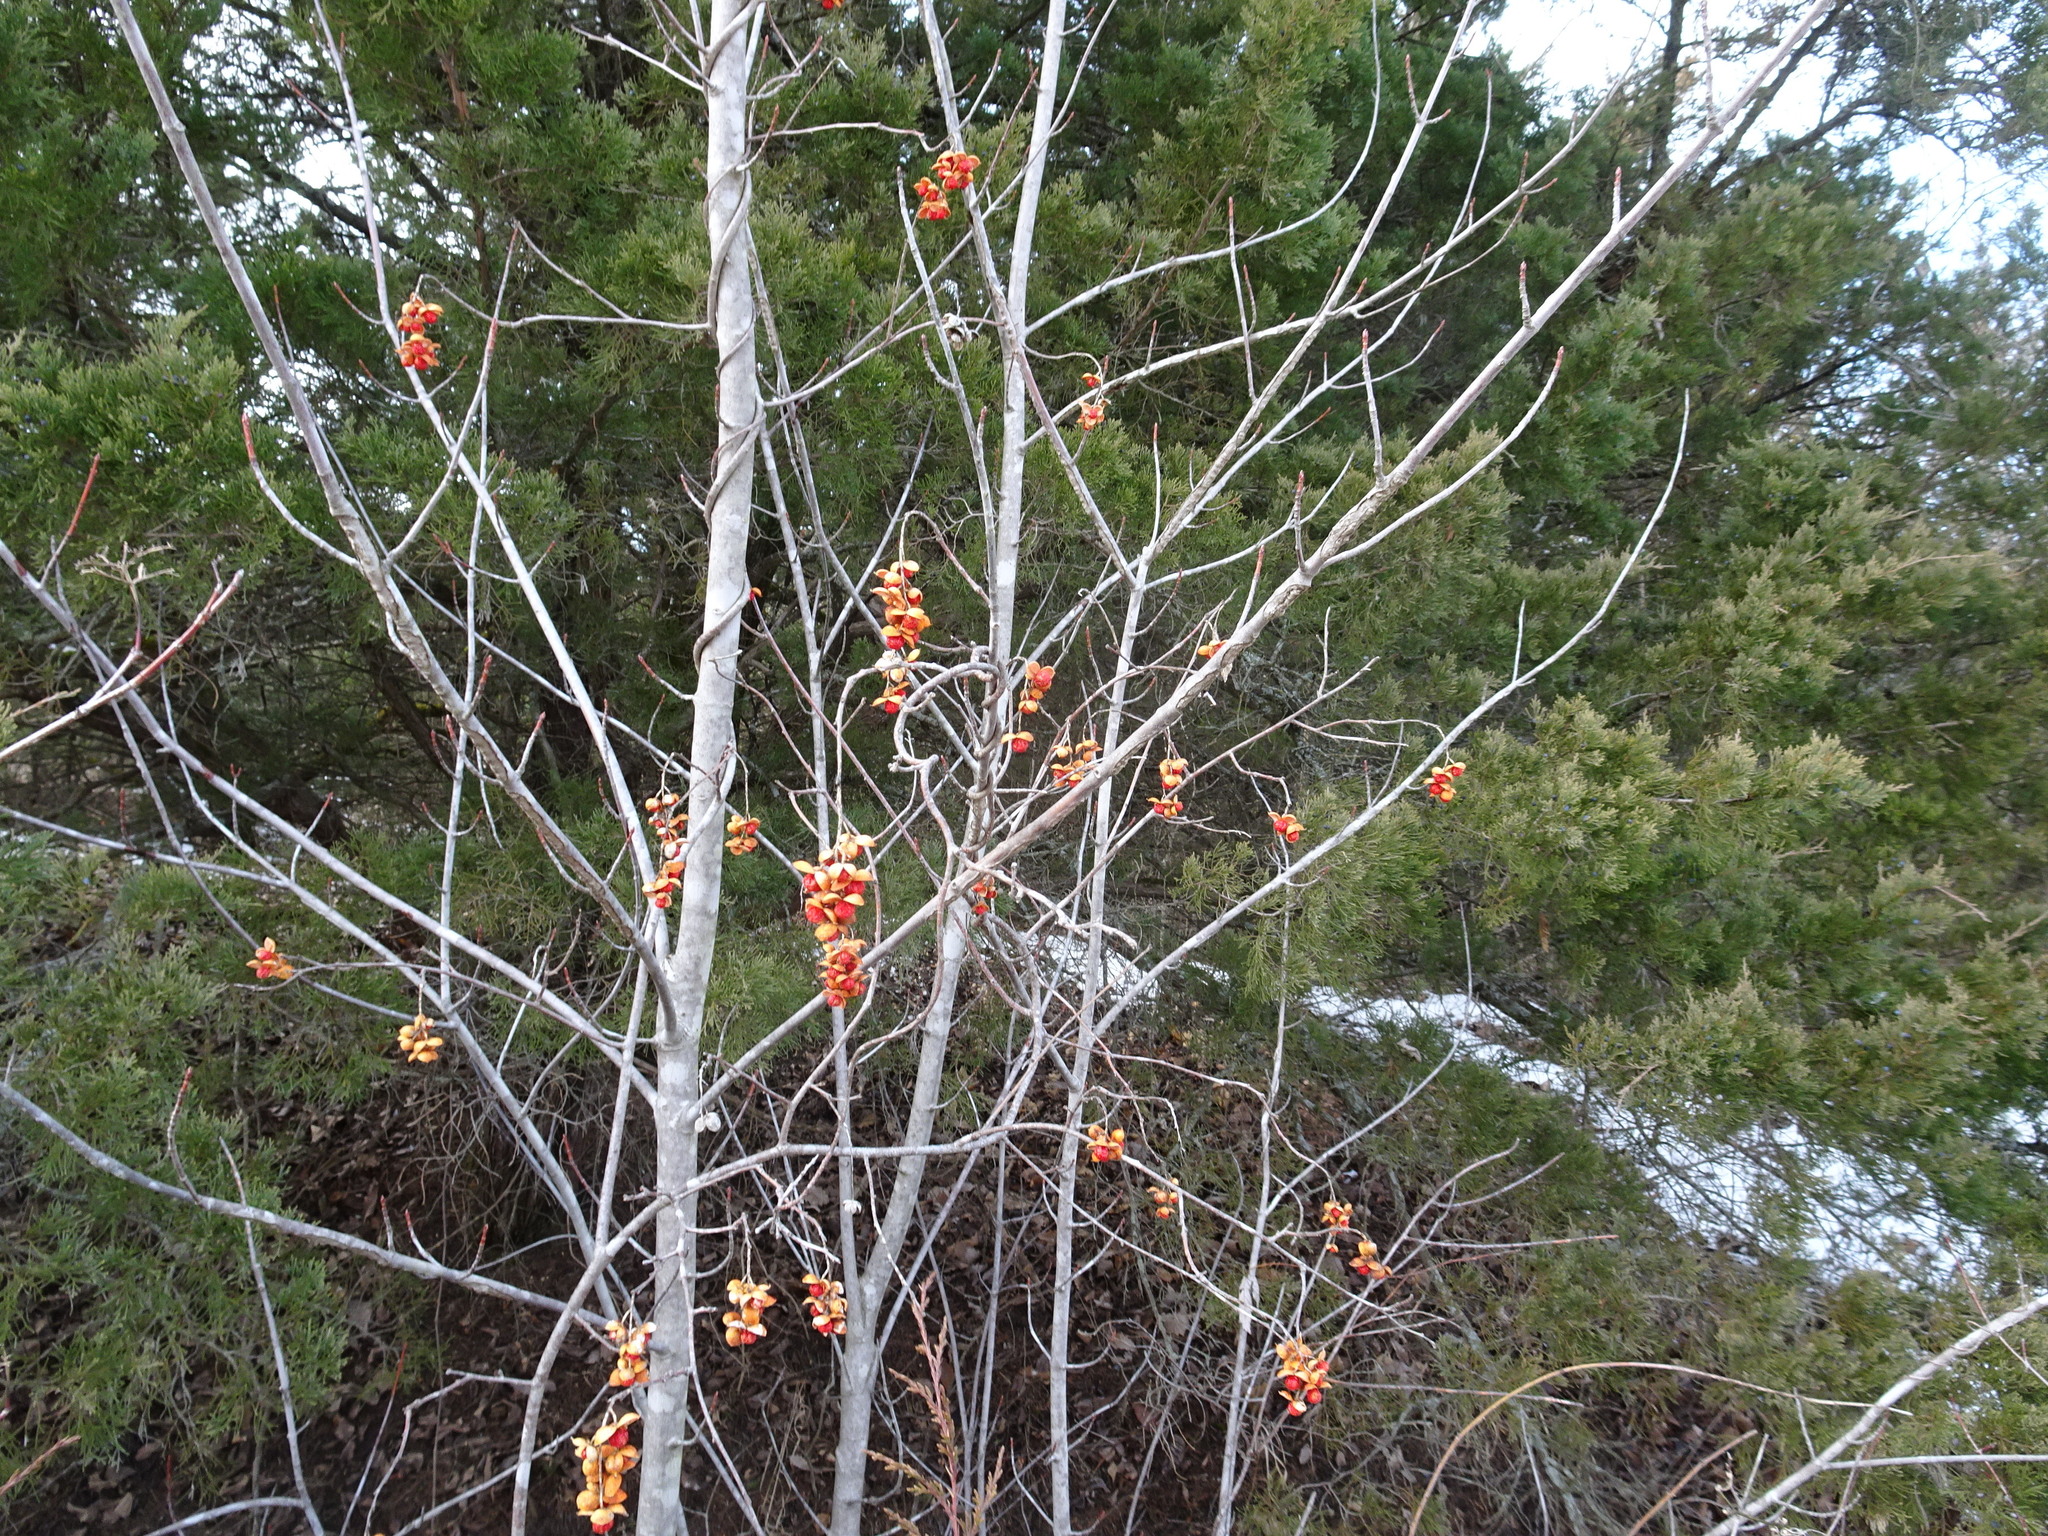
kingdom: Plantae
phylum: Tracheophyta
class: Magnoliopsida
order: Celastrales
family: Celastraceae
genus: Celastrus
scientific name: Celastrus scandens
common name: American bittersweet
